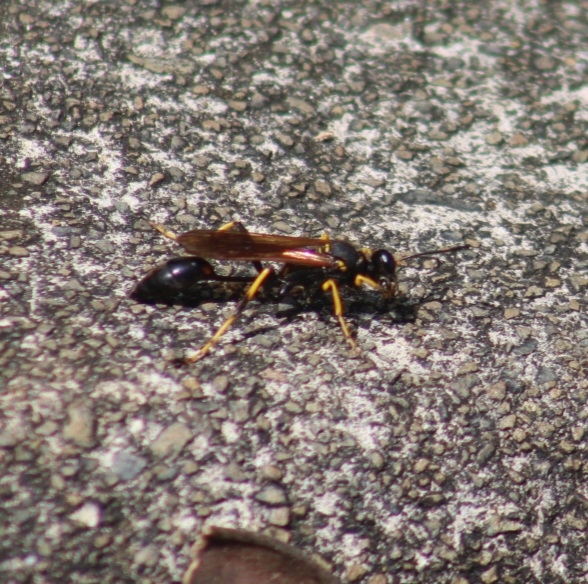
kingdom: Animalia
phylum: Arthropoda
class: Insecta
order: Hymenoptera
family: Sphecidae
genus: Sceliphron
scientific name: Sceliphron caementarium
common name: Mud dauber
